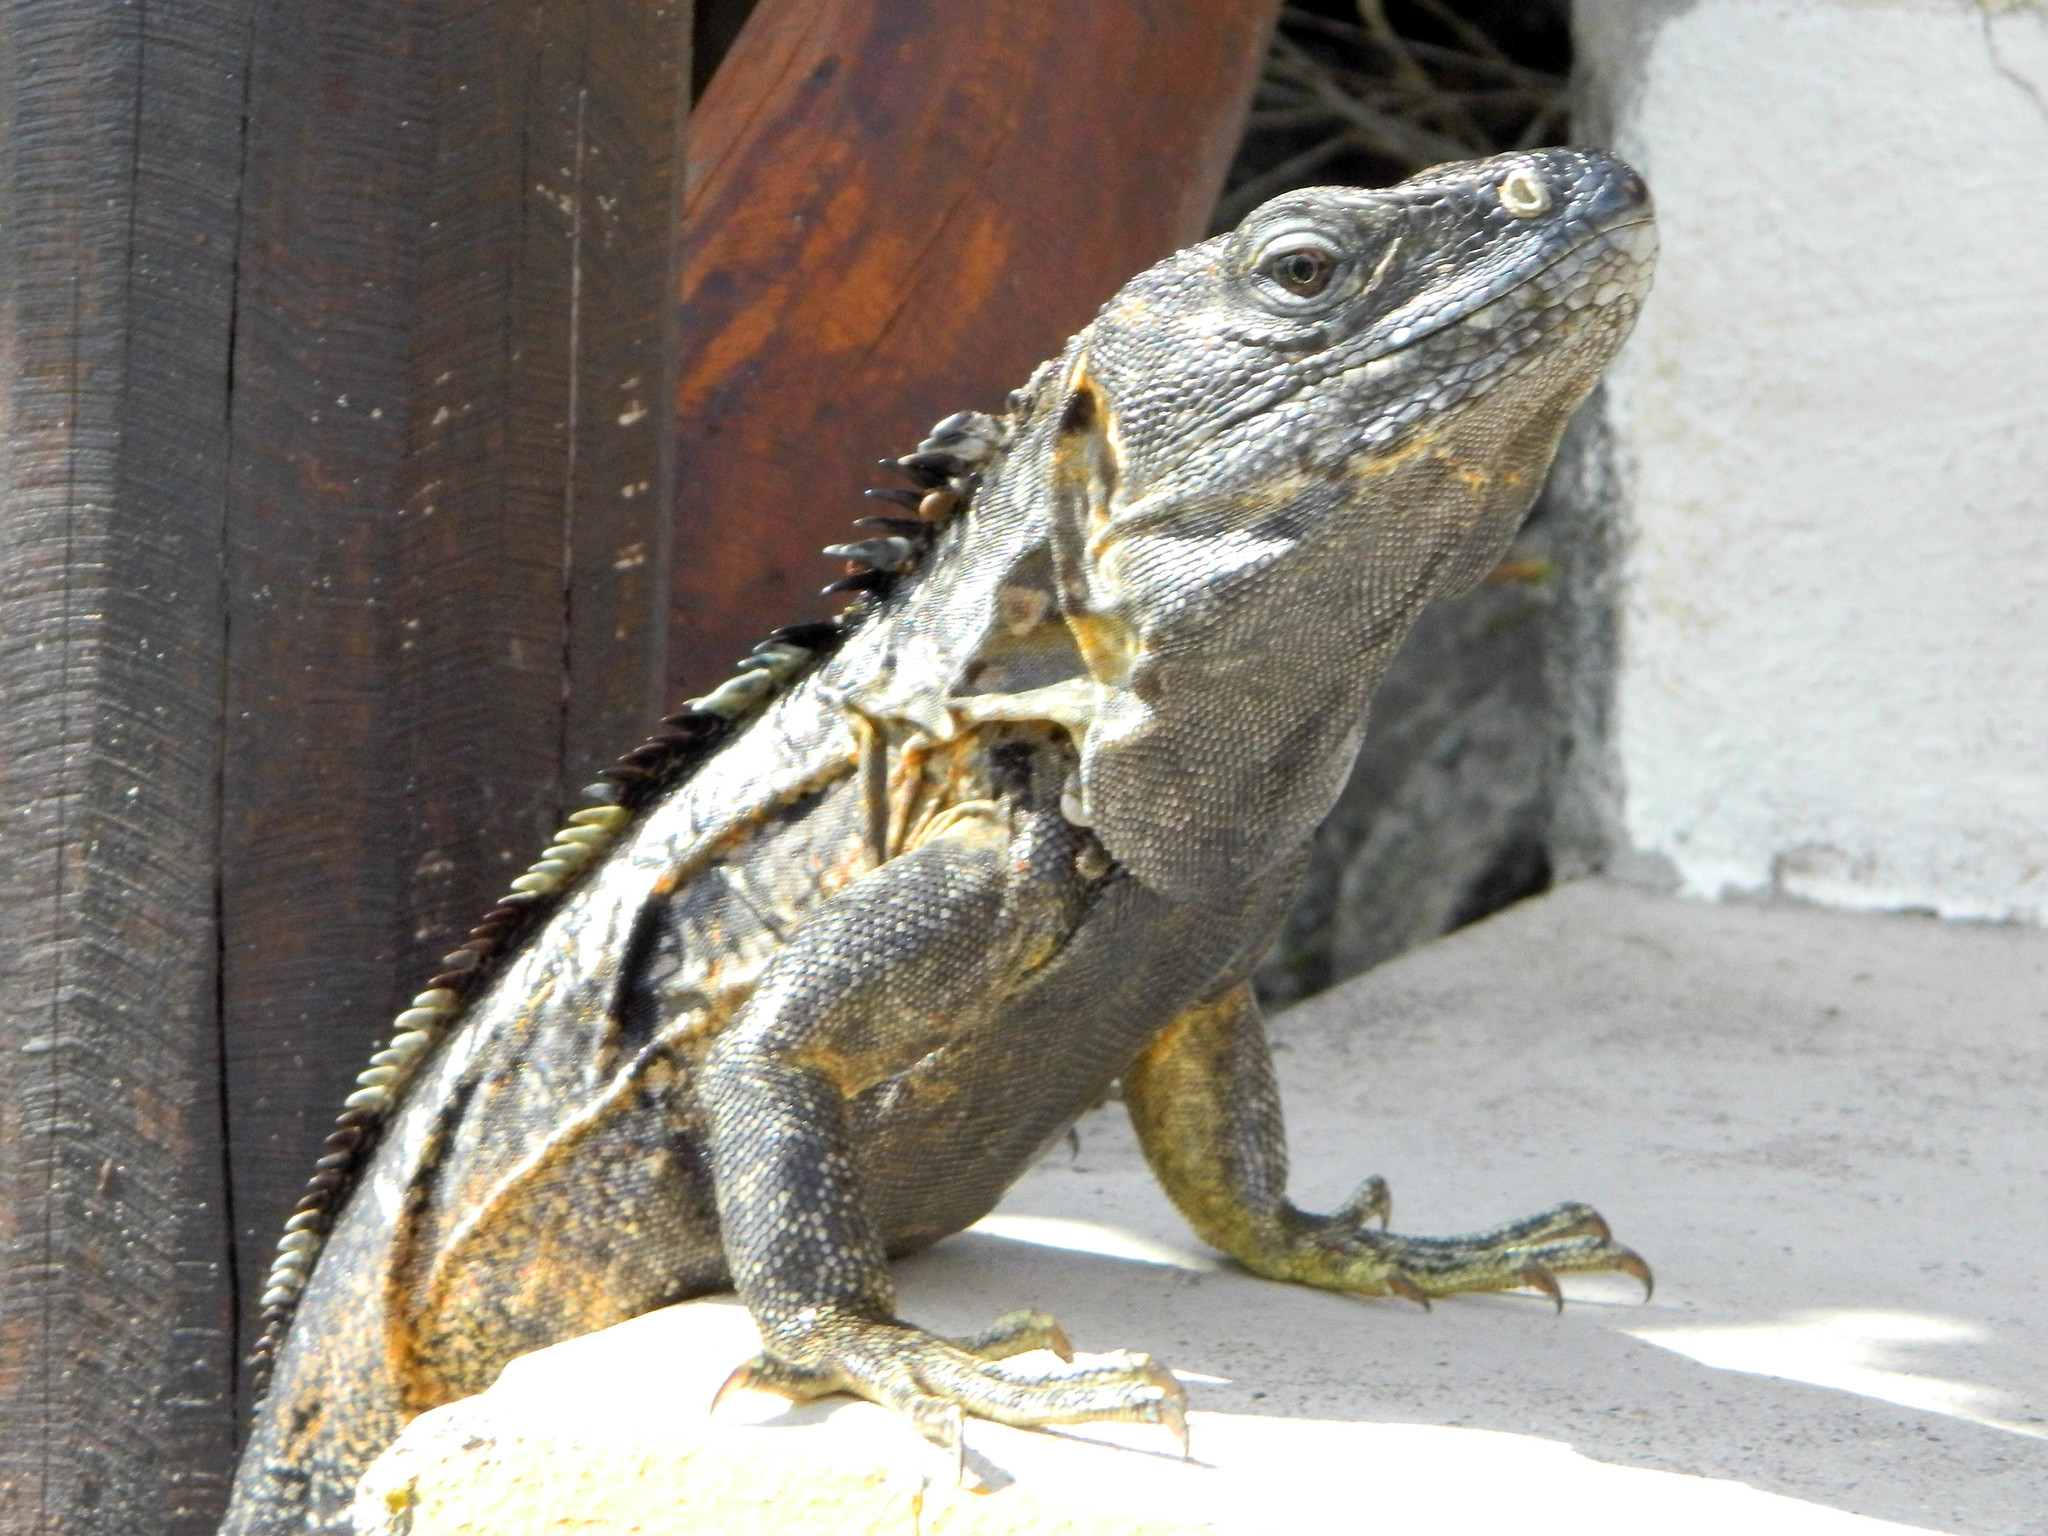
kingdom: Animalia
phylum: Chordata
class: Squamata
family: Iguanidae
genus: Ctenosaura
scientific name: Ctenosaura pectinata
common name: Guerreran spiny-tailed iguana
